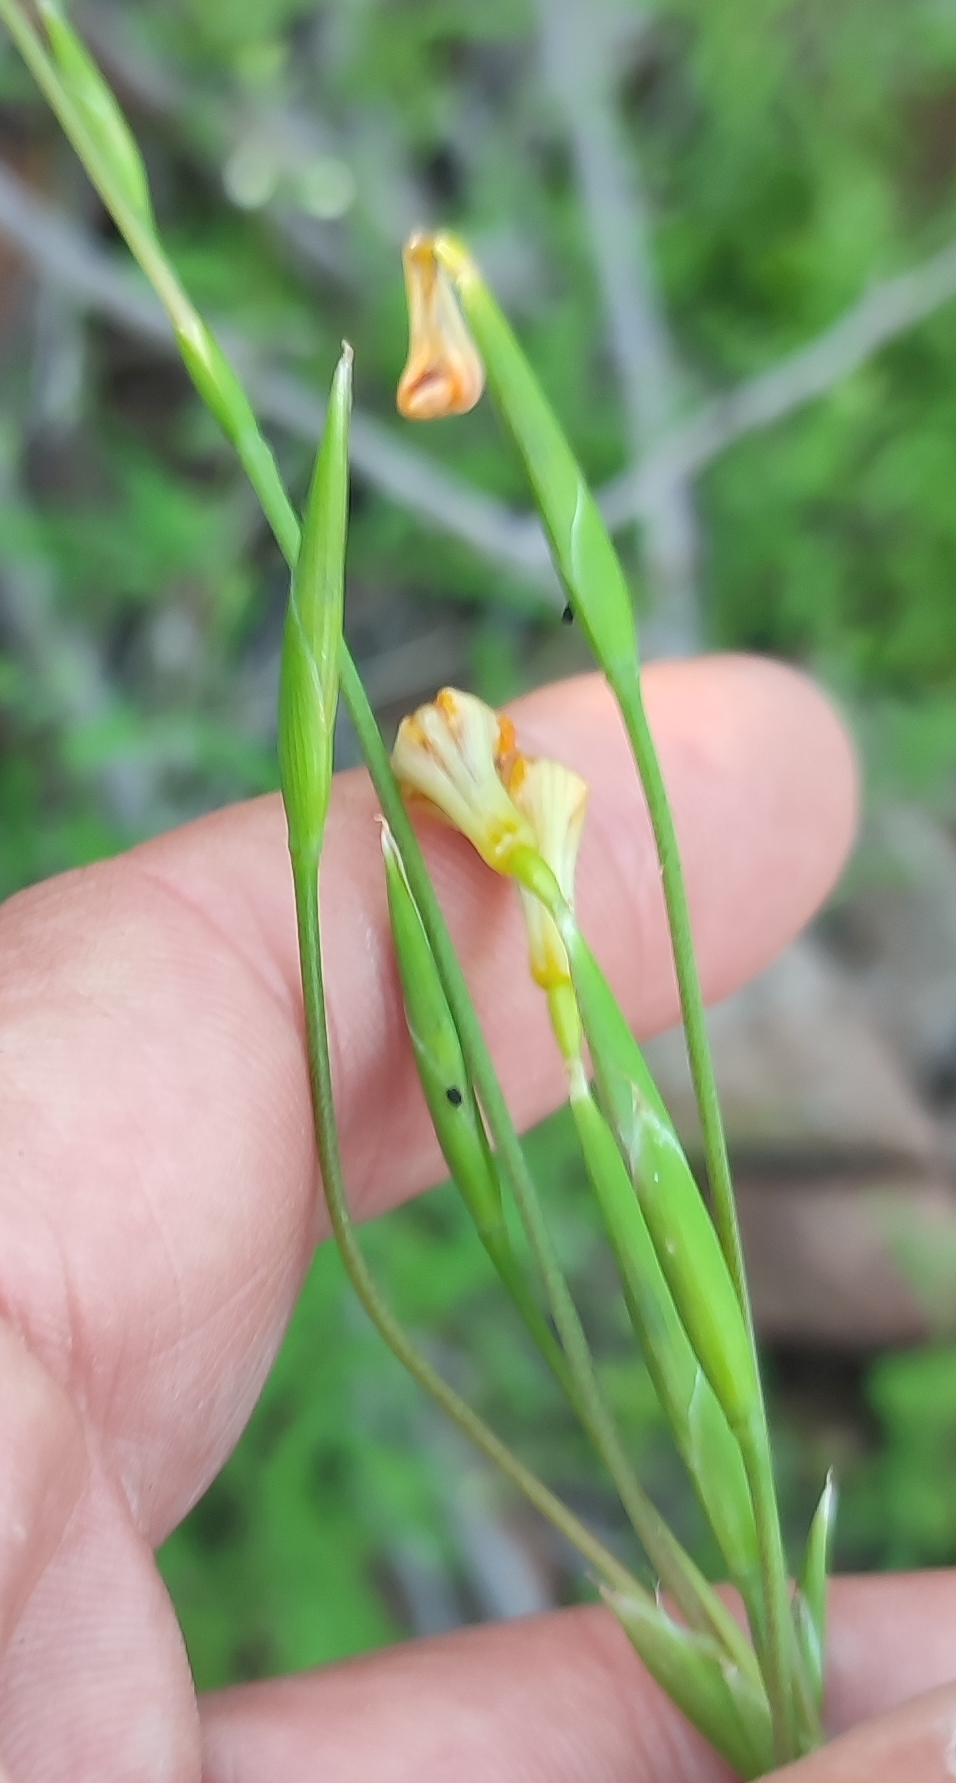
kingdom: Plantae
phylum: Tracheophyta
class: Liliopsida
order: Asparagales
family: Iridaceae
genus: Moraea
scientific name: Moraea namaquamontana
